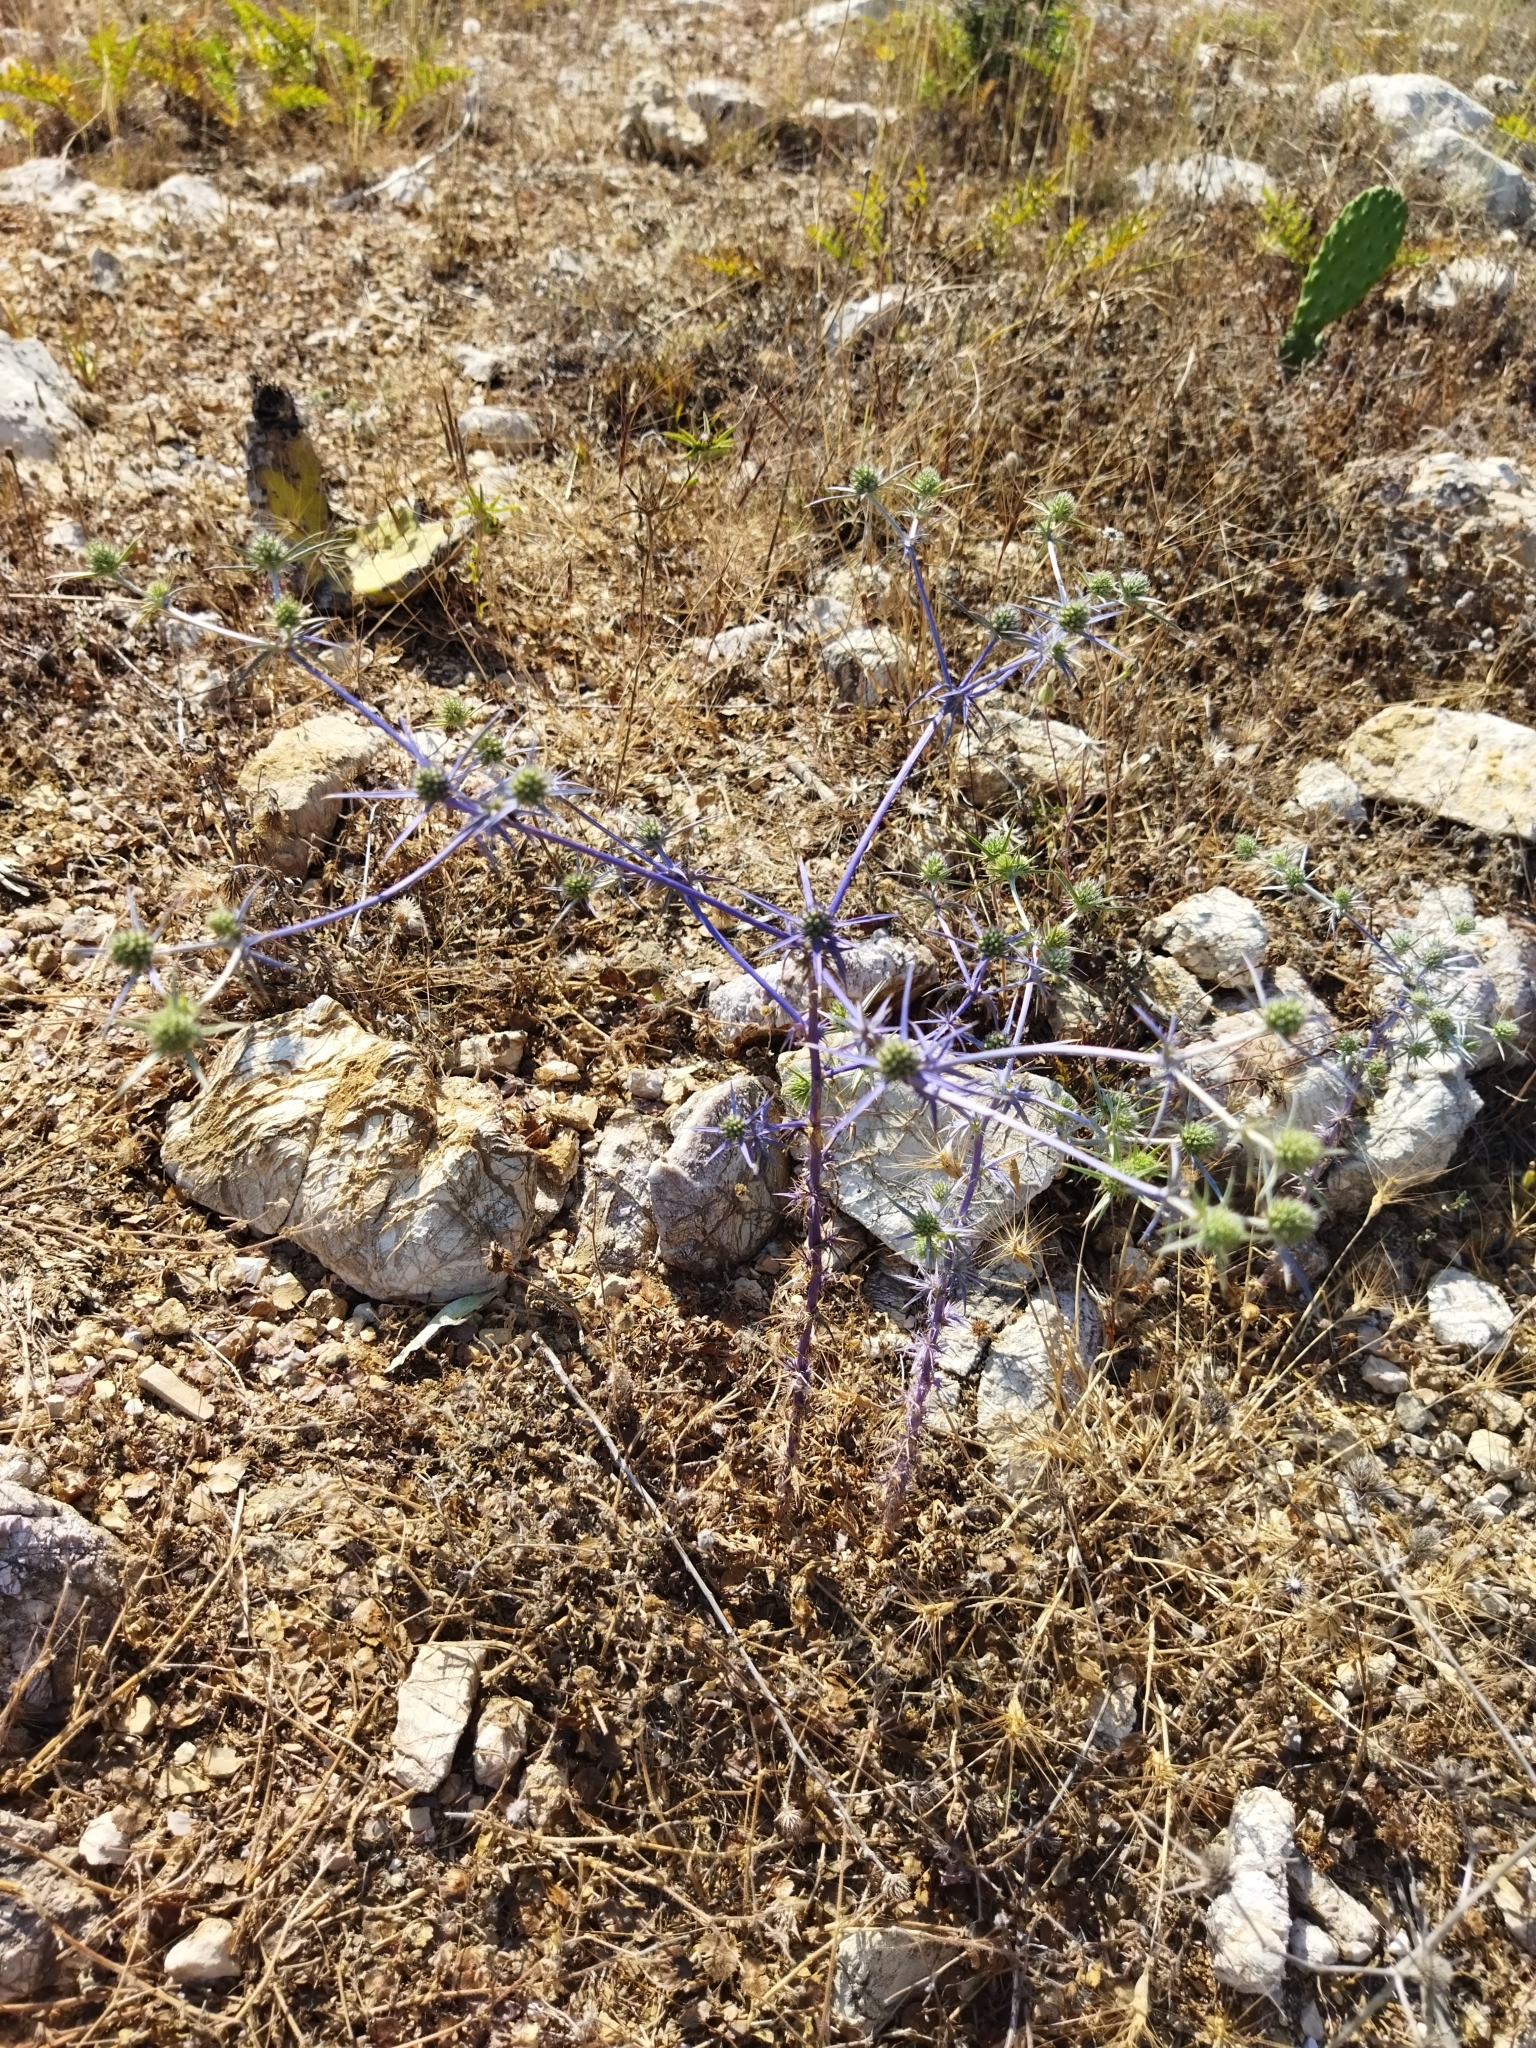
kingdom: Plantae
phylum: Tracheophyta
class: Magnoliopsida
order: Apiales
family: Apiaceae
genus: Eryngium
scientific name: Eryngium creticum
